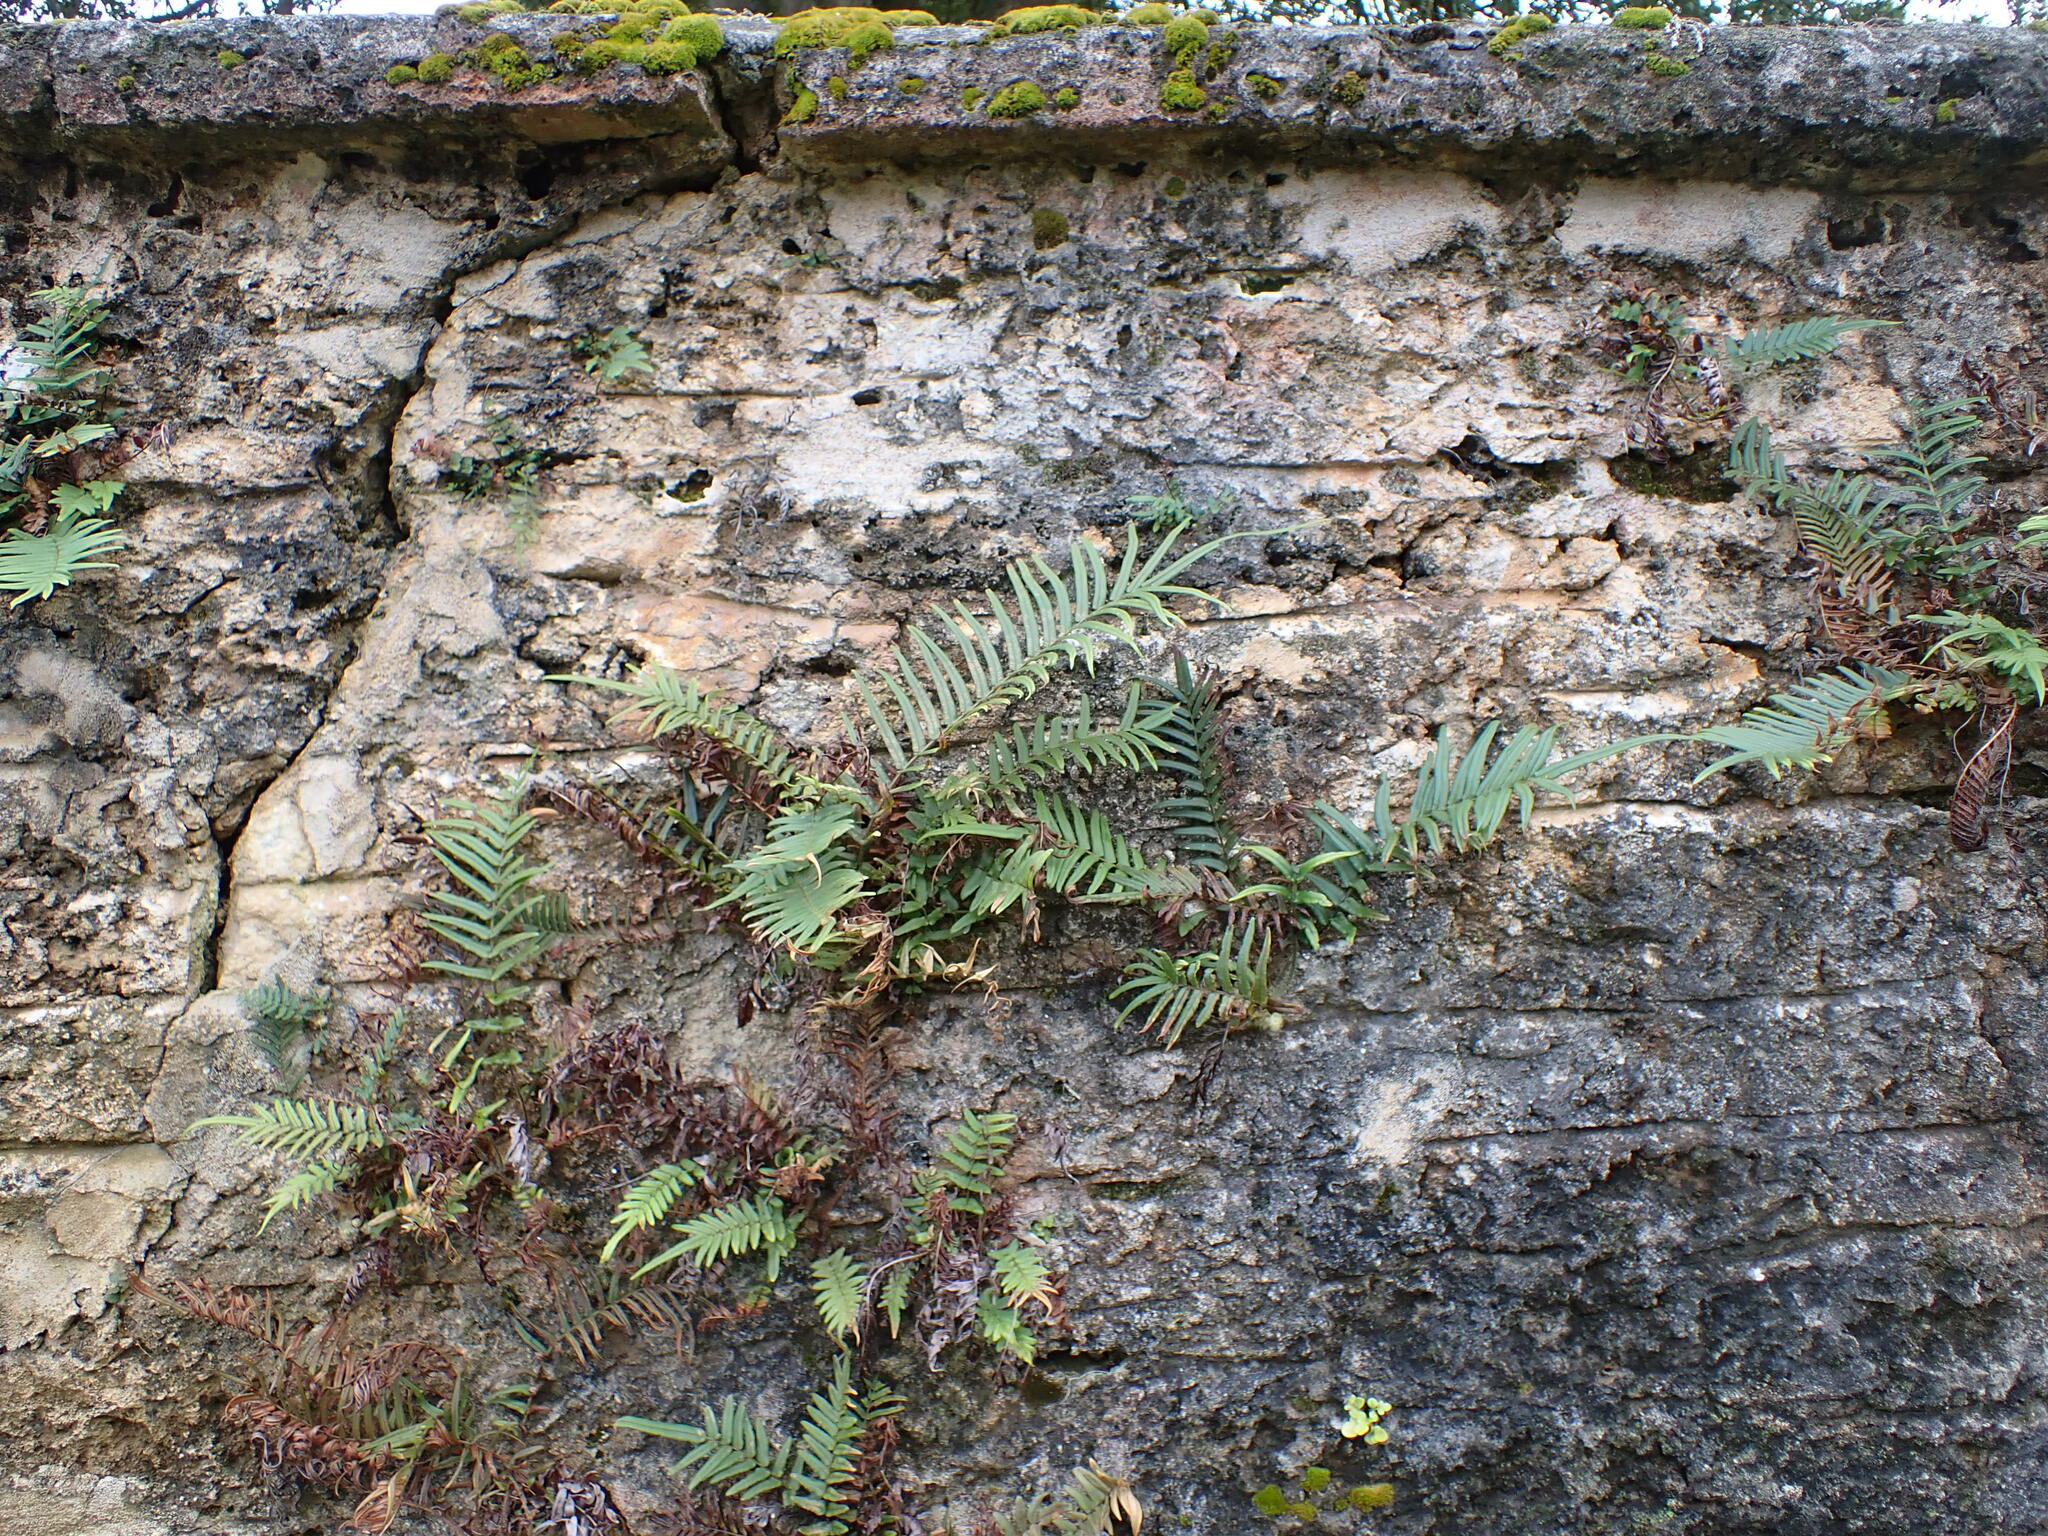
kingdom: Plantae
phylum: Tracheophyta
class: Polypodiopsida
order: Polypodiales
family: Pteridaceae
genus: Pteris
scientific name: Pteris vittata
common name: Ladder brake
